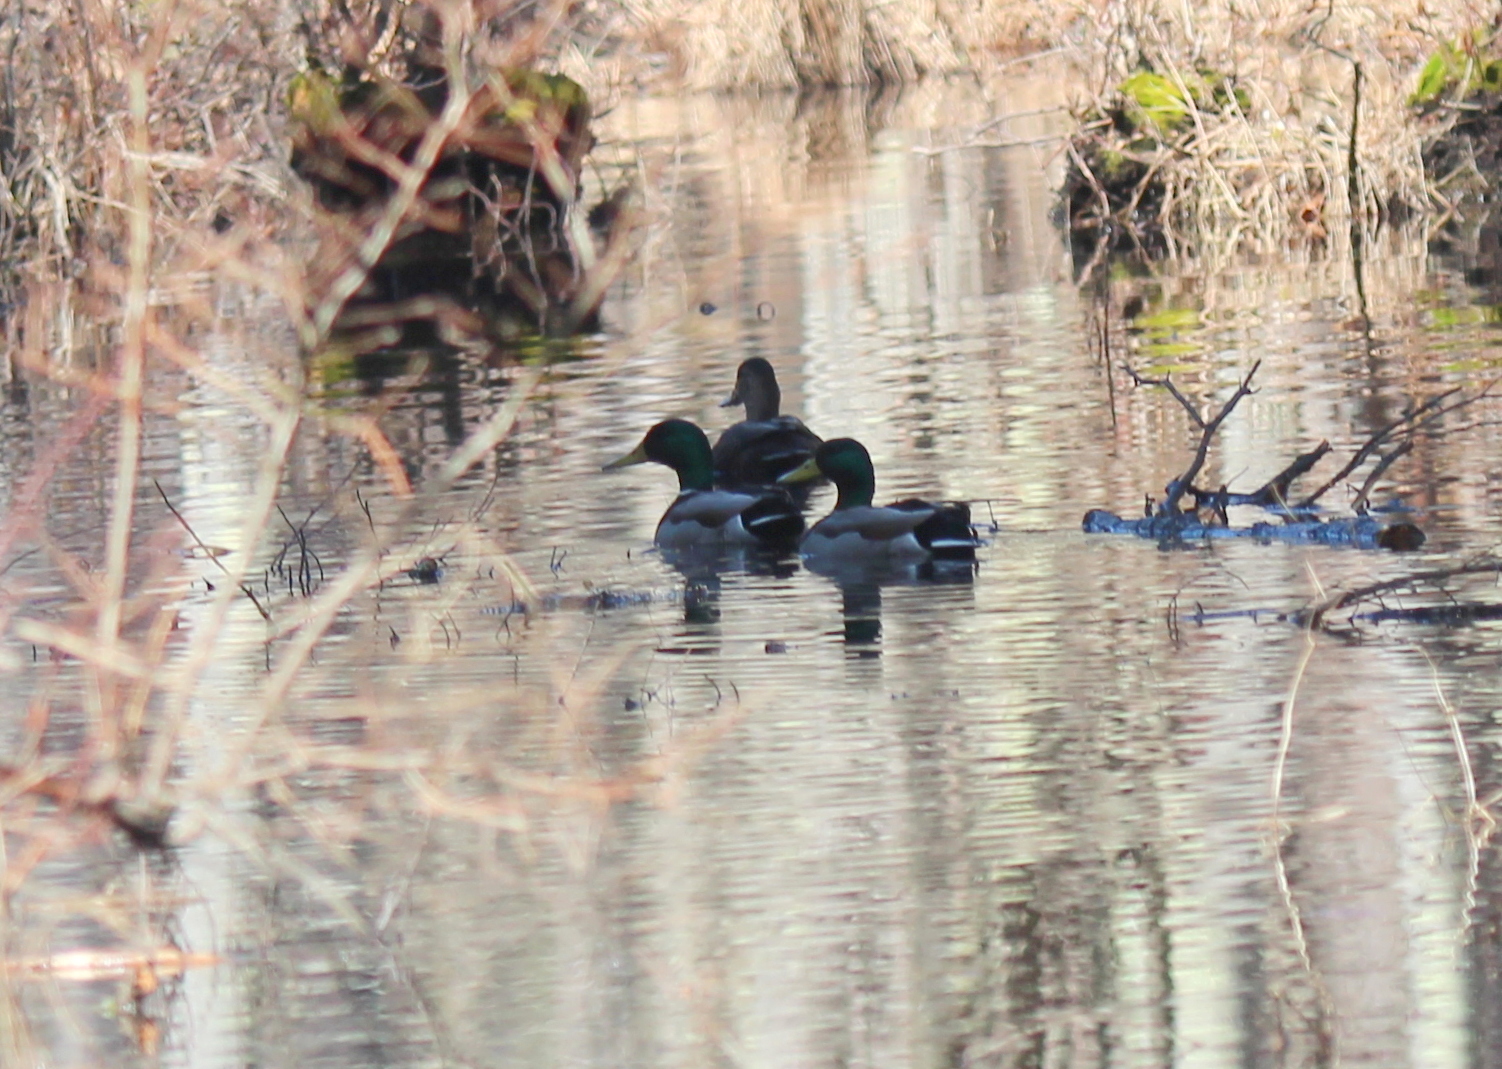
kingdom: Animalia
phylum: Chordata
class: Aves
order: Anseriformes
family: Anatidae
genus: Anas
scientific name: Anas platyrhynchos
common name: Mallard
